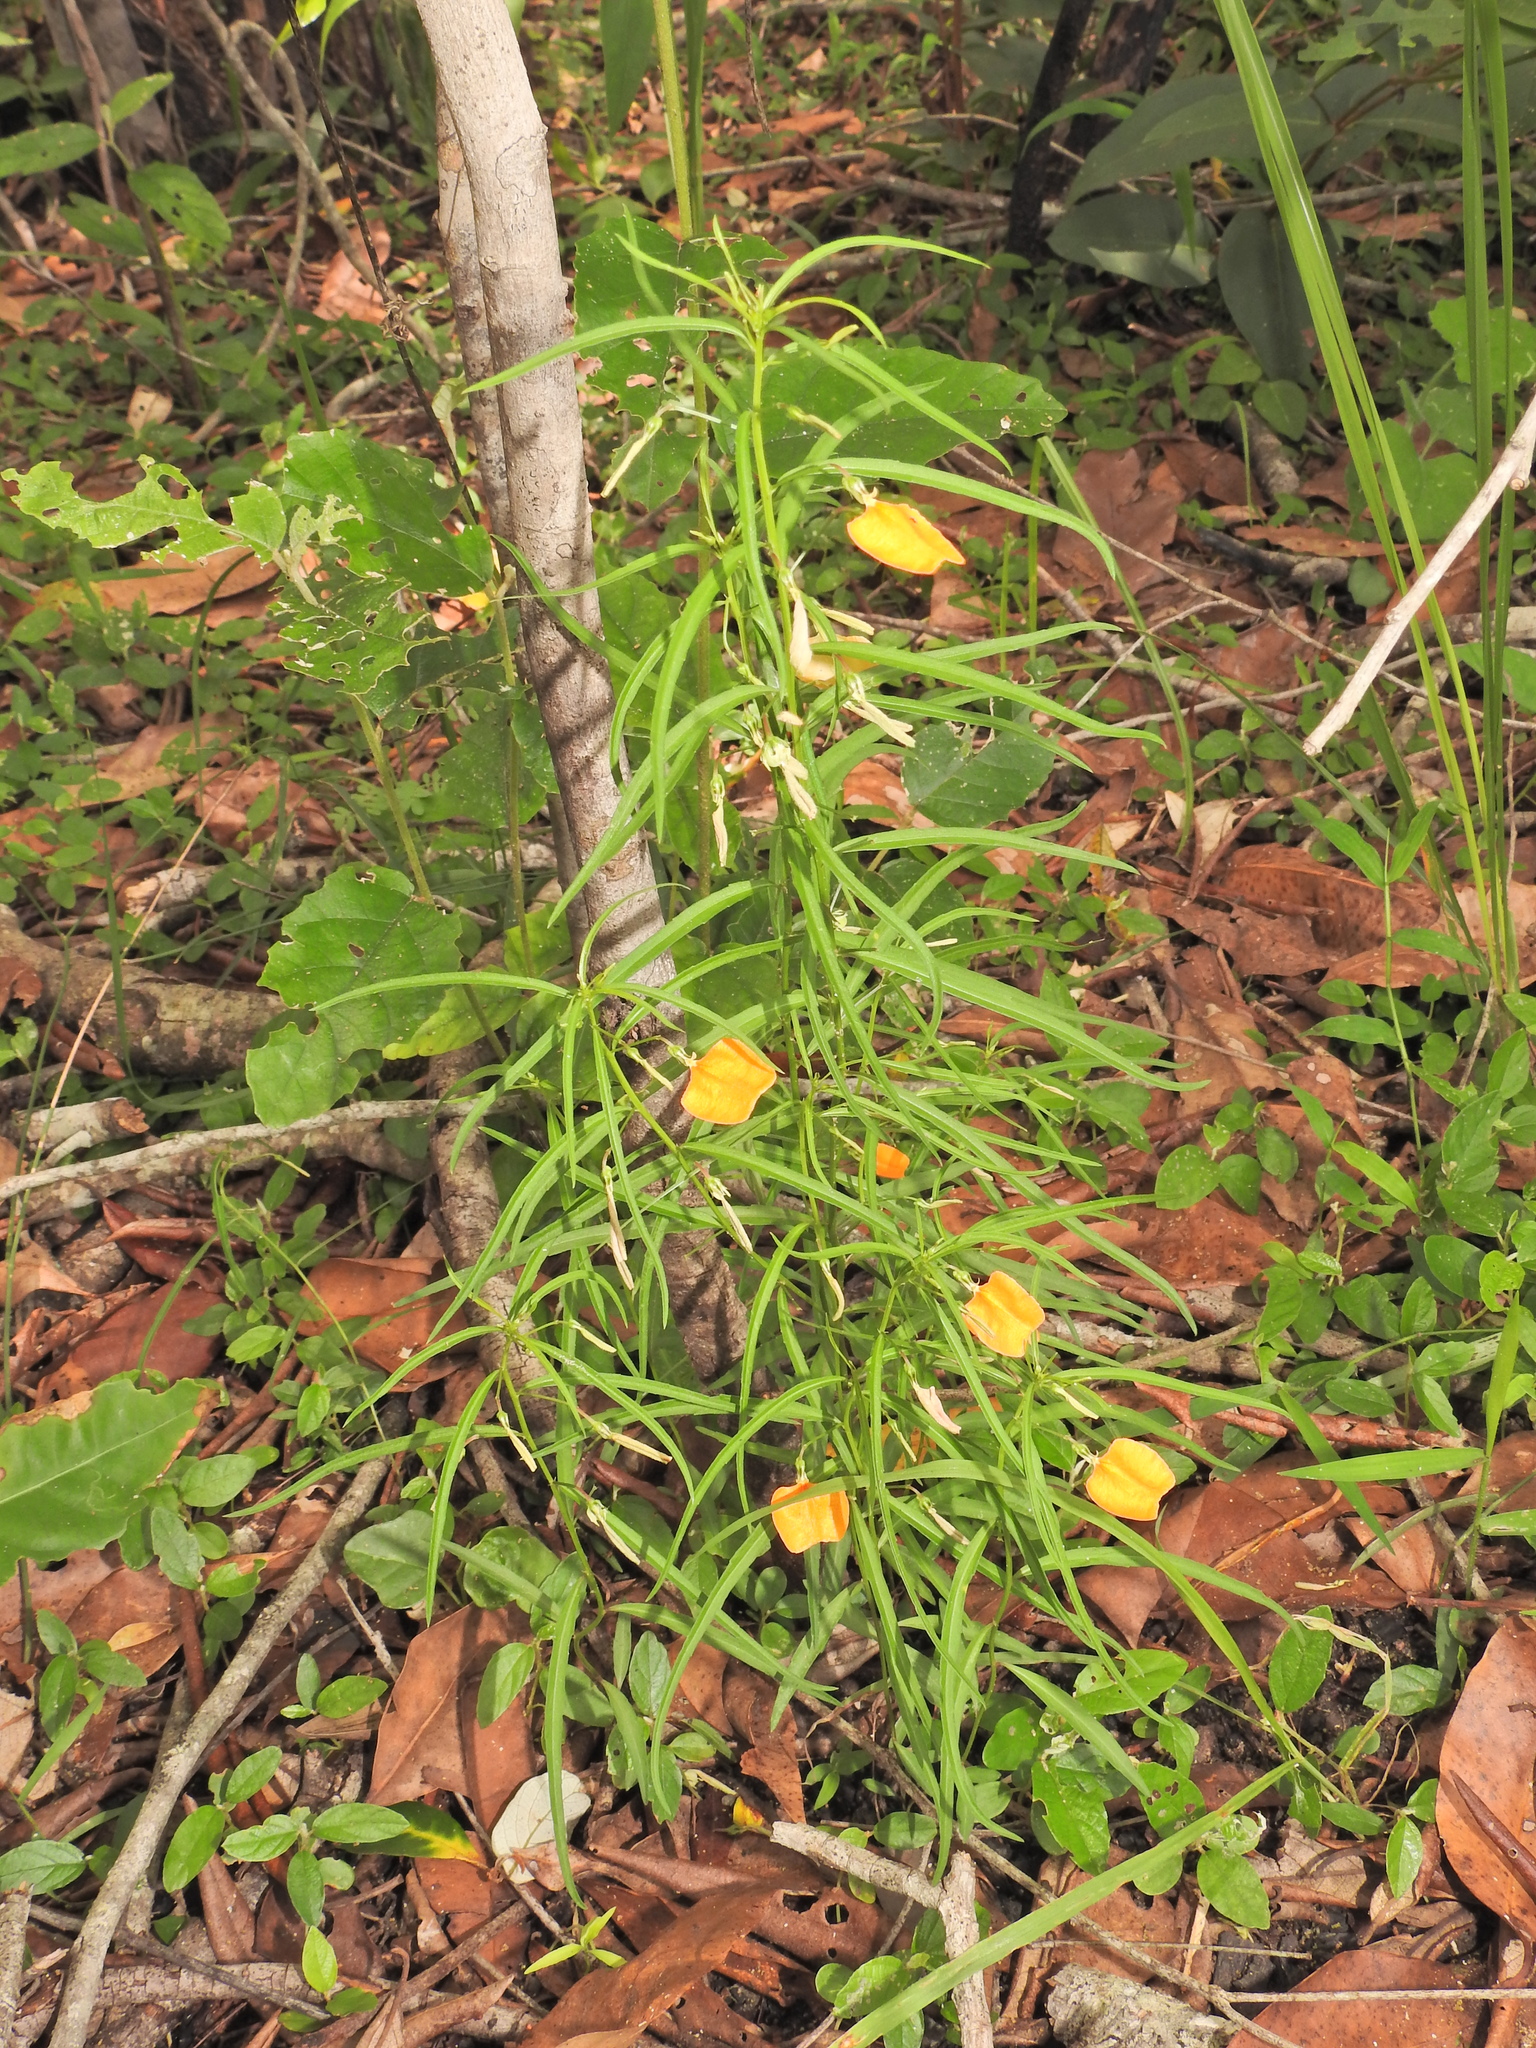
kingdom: Plantae
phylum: Tracheophyta
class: Magnoliopsida
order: Malpighiales
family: Violaceae
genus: Pigea
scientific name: Pigea stellarioides
